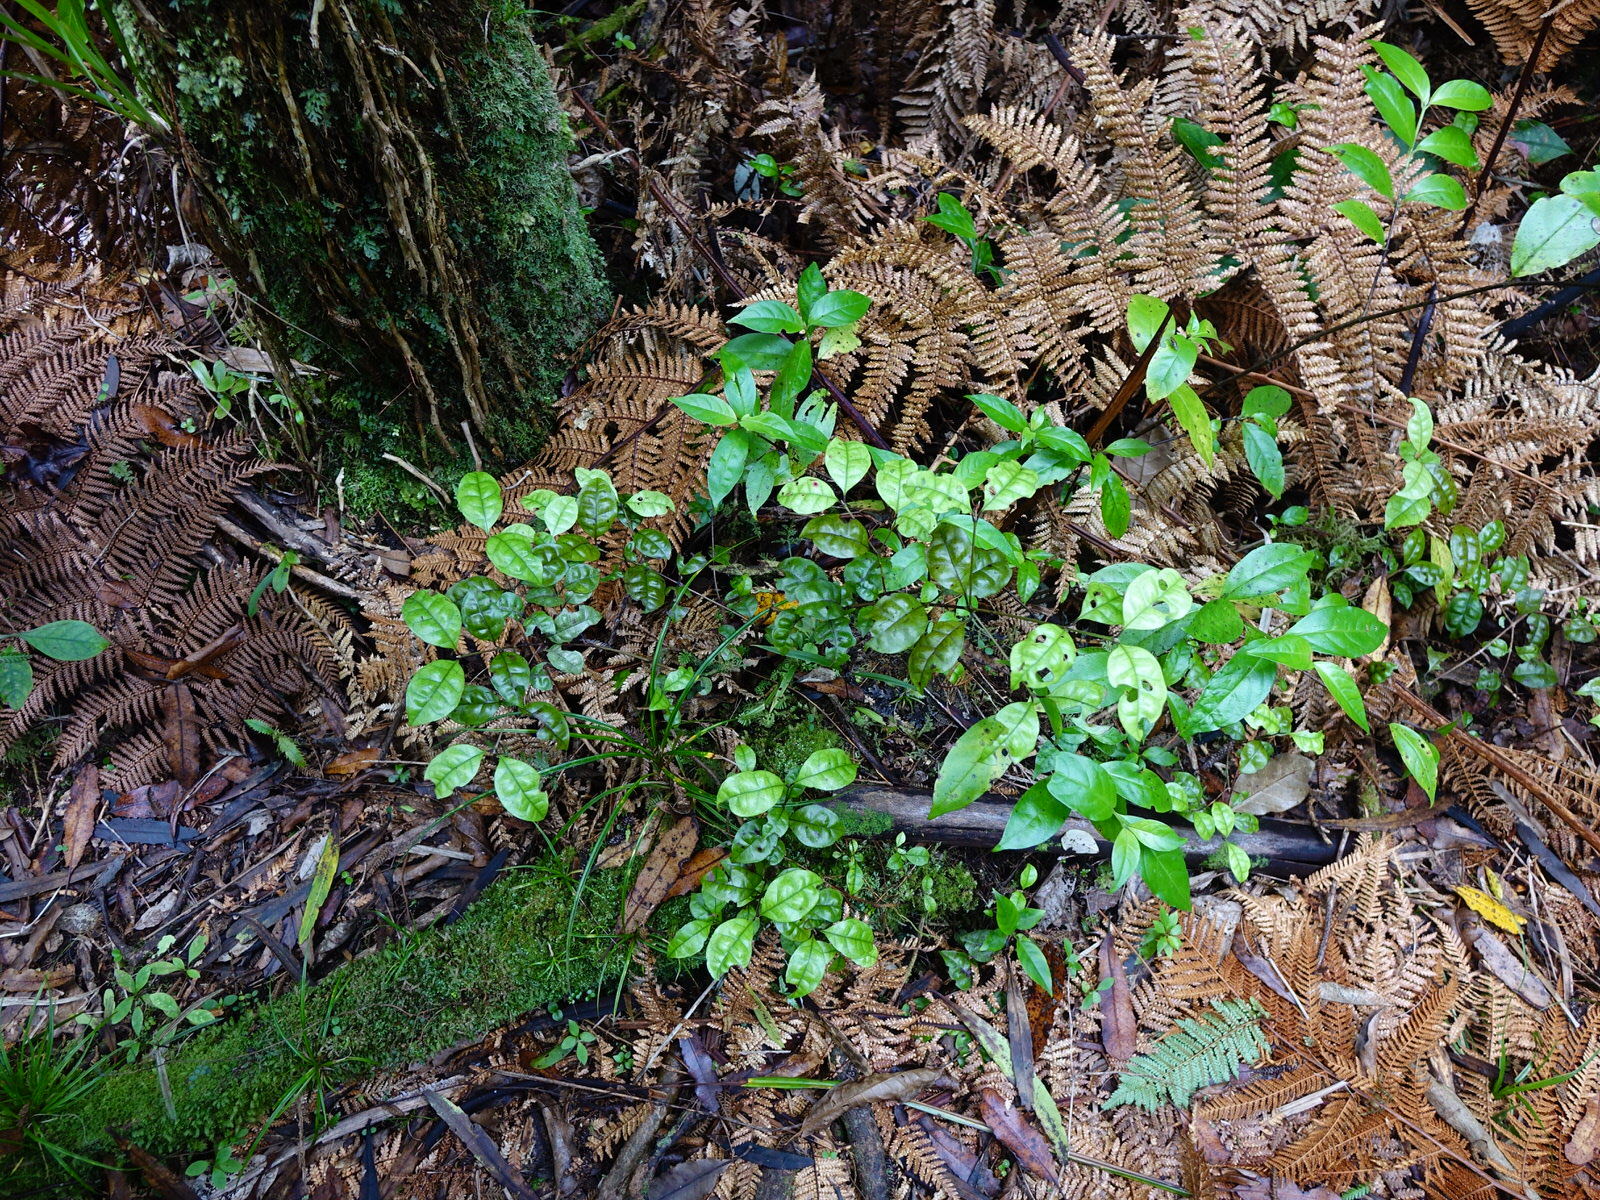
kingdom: Plantae
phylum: Tracheophyta
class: Magnoliopsida
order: Myrtales
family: Myrtaceae
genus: Lophomyrtus
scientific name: Lophomyrtus bullata
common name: Rama rama
